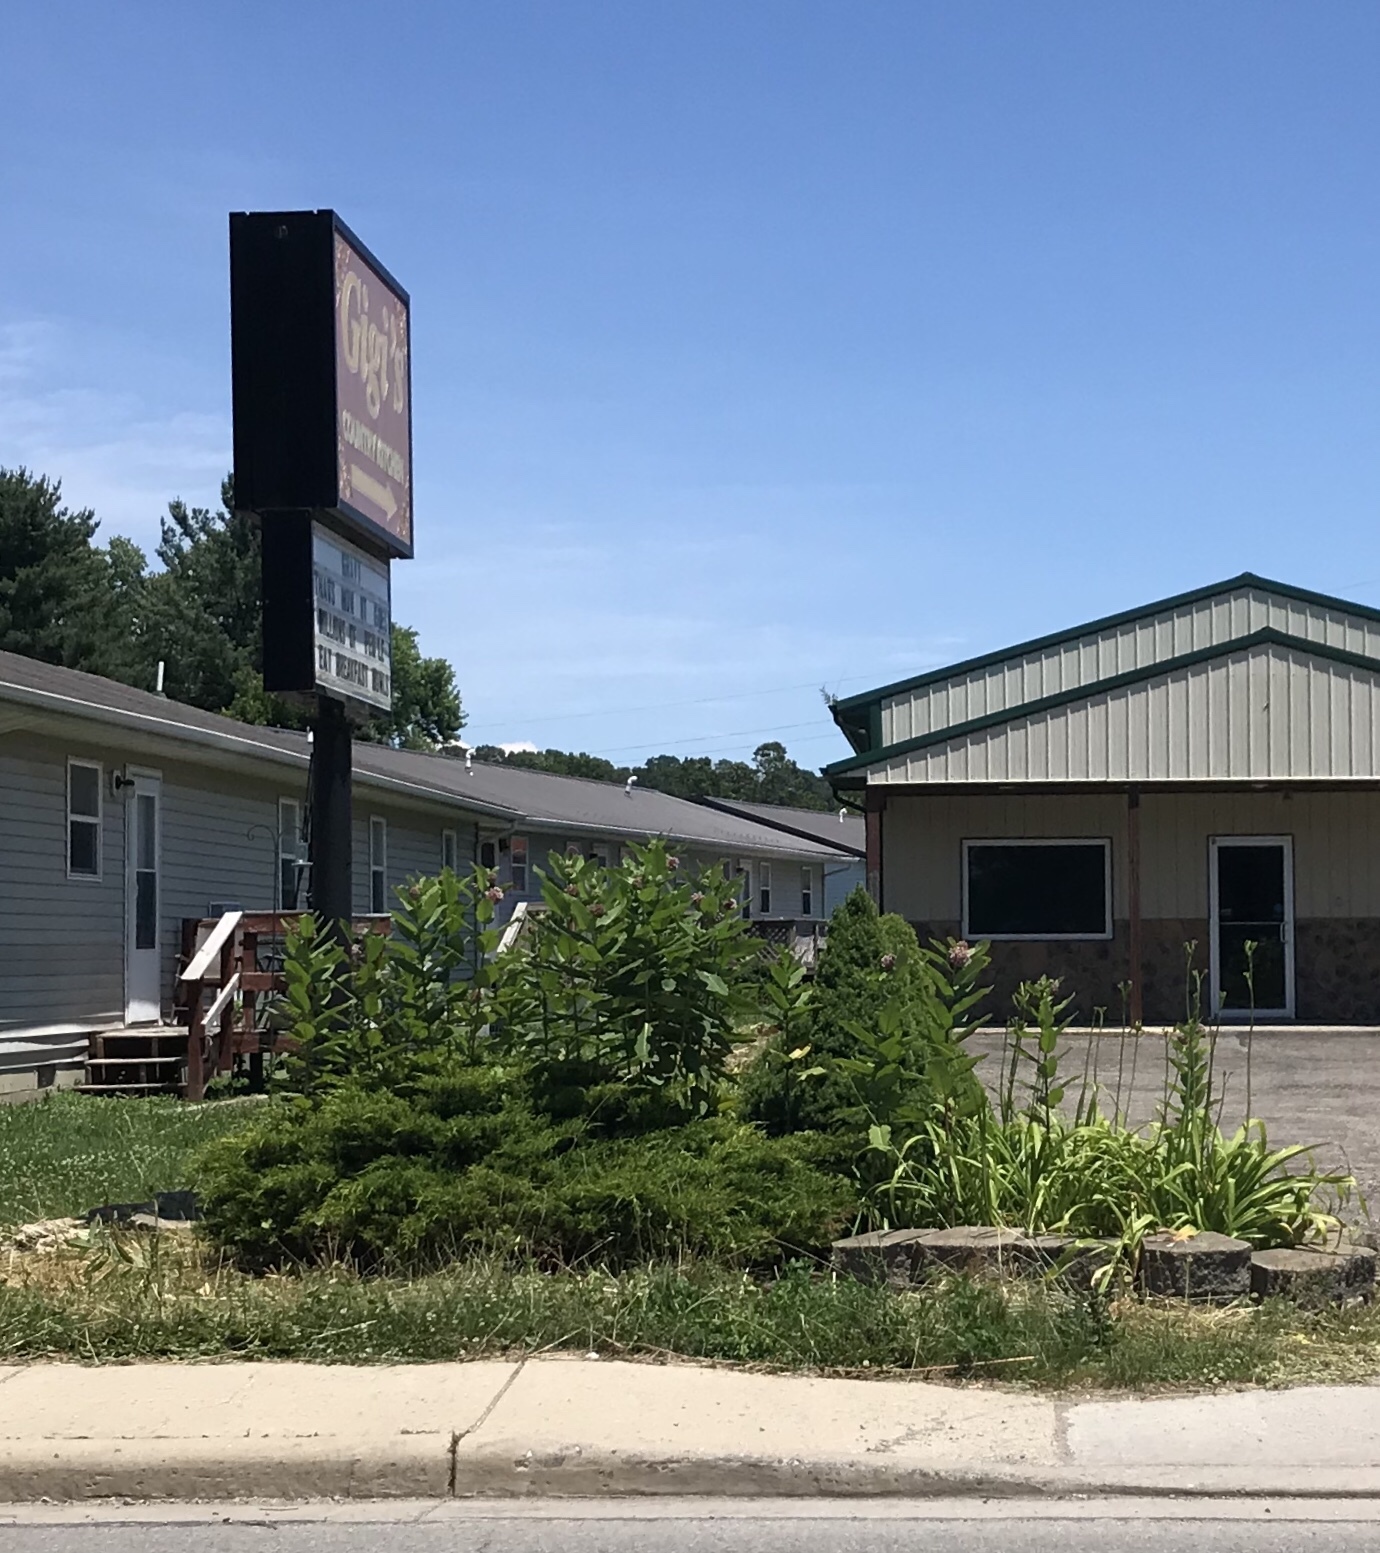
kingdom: Plantae
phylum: Tracheophyta
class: Magnoliopsida
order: Gentianales
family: Apocynaceae
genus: Asclepias
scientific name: Asclepias syriaca
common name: Common milkweed
